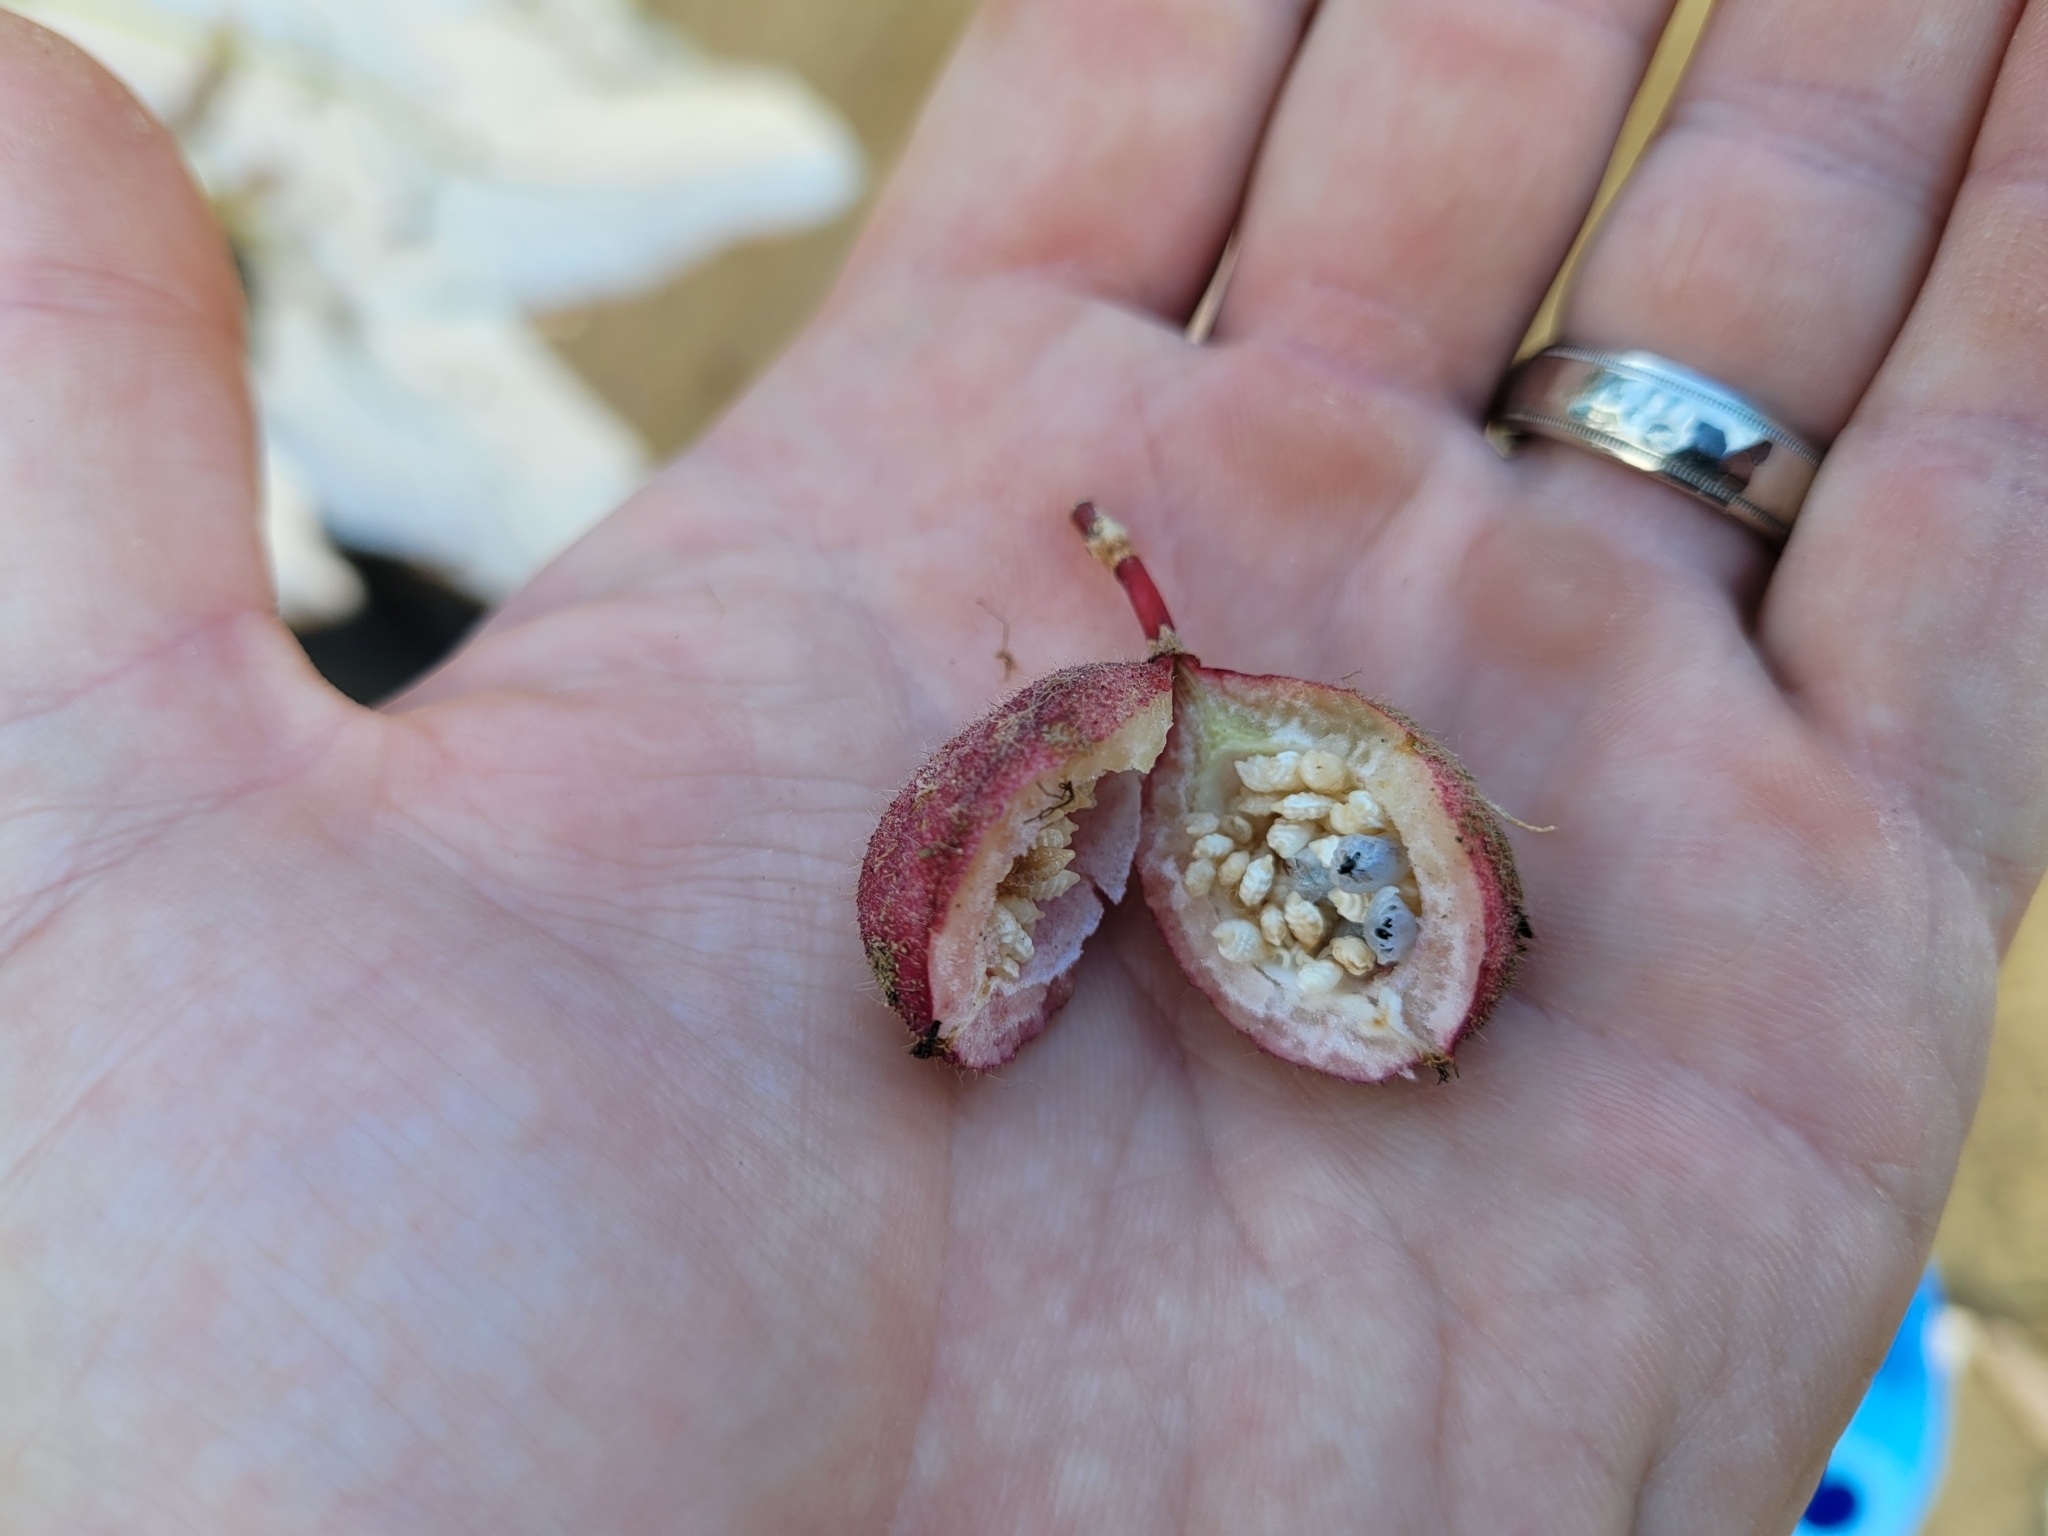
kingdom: Plantae
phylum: Tracheophyta
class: Magnoliopsida
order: Malpighiales
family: Passifloraceae
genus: Passiflora
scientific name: Passiflora rubra
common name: Snakeberry vine
